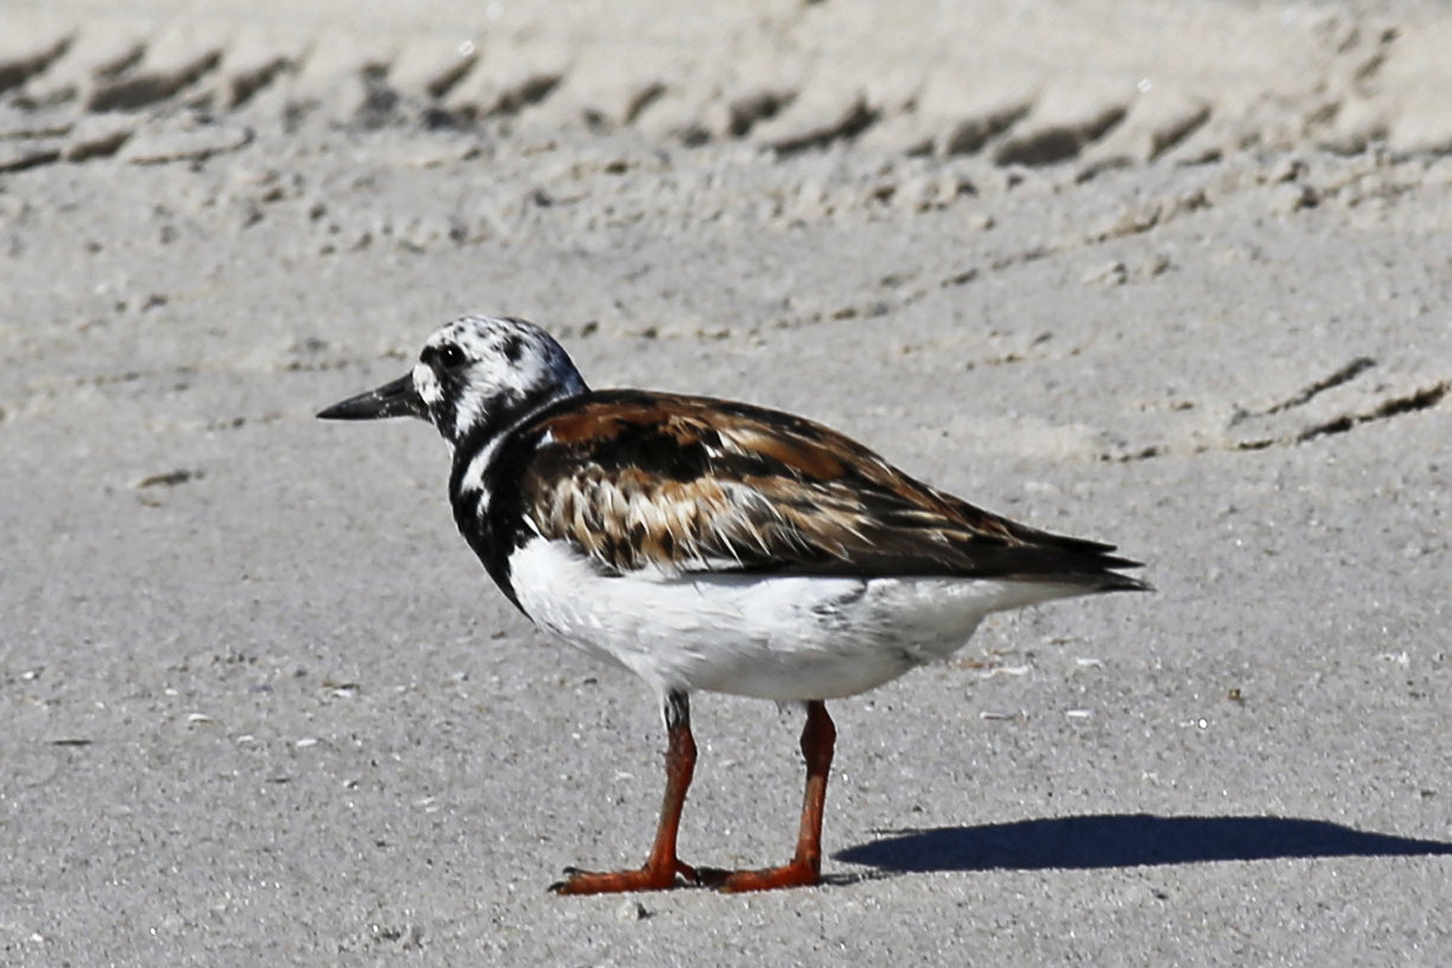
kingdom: Animalia
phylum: Chordata
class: Aves
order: Charadriiformes
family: Scolopacidae
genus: Arenaria
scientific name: Arenaria interpres
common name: Ruddy turnstone
